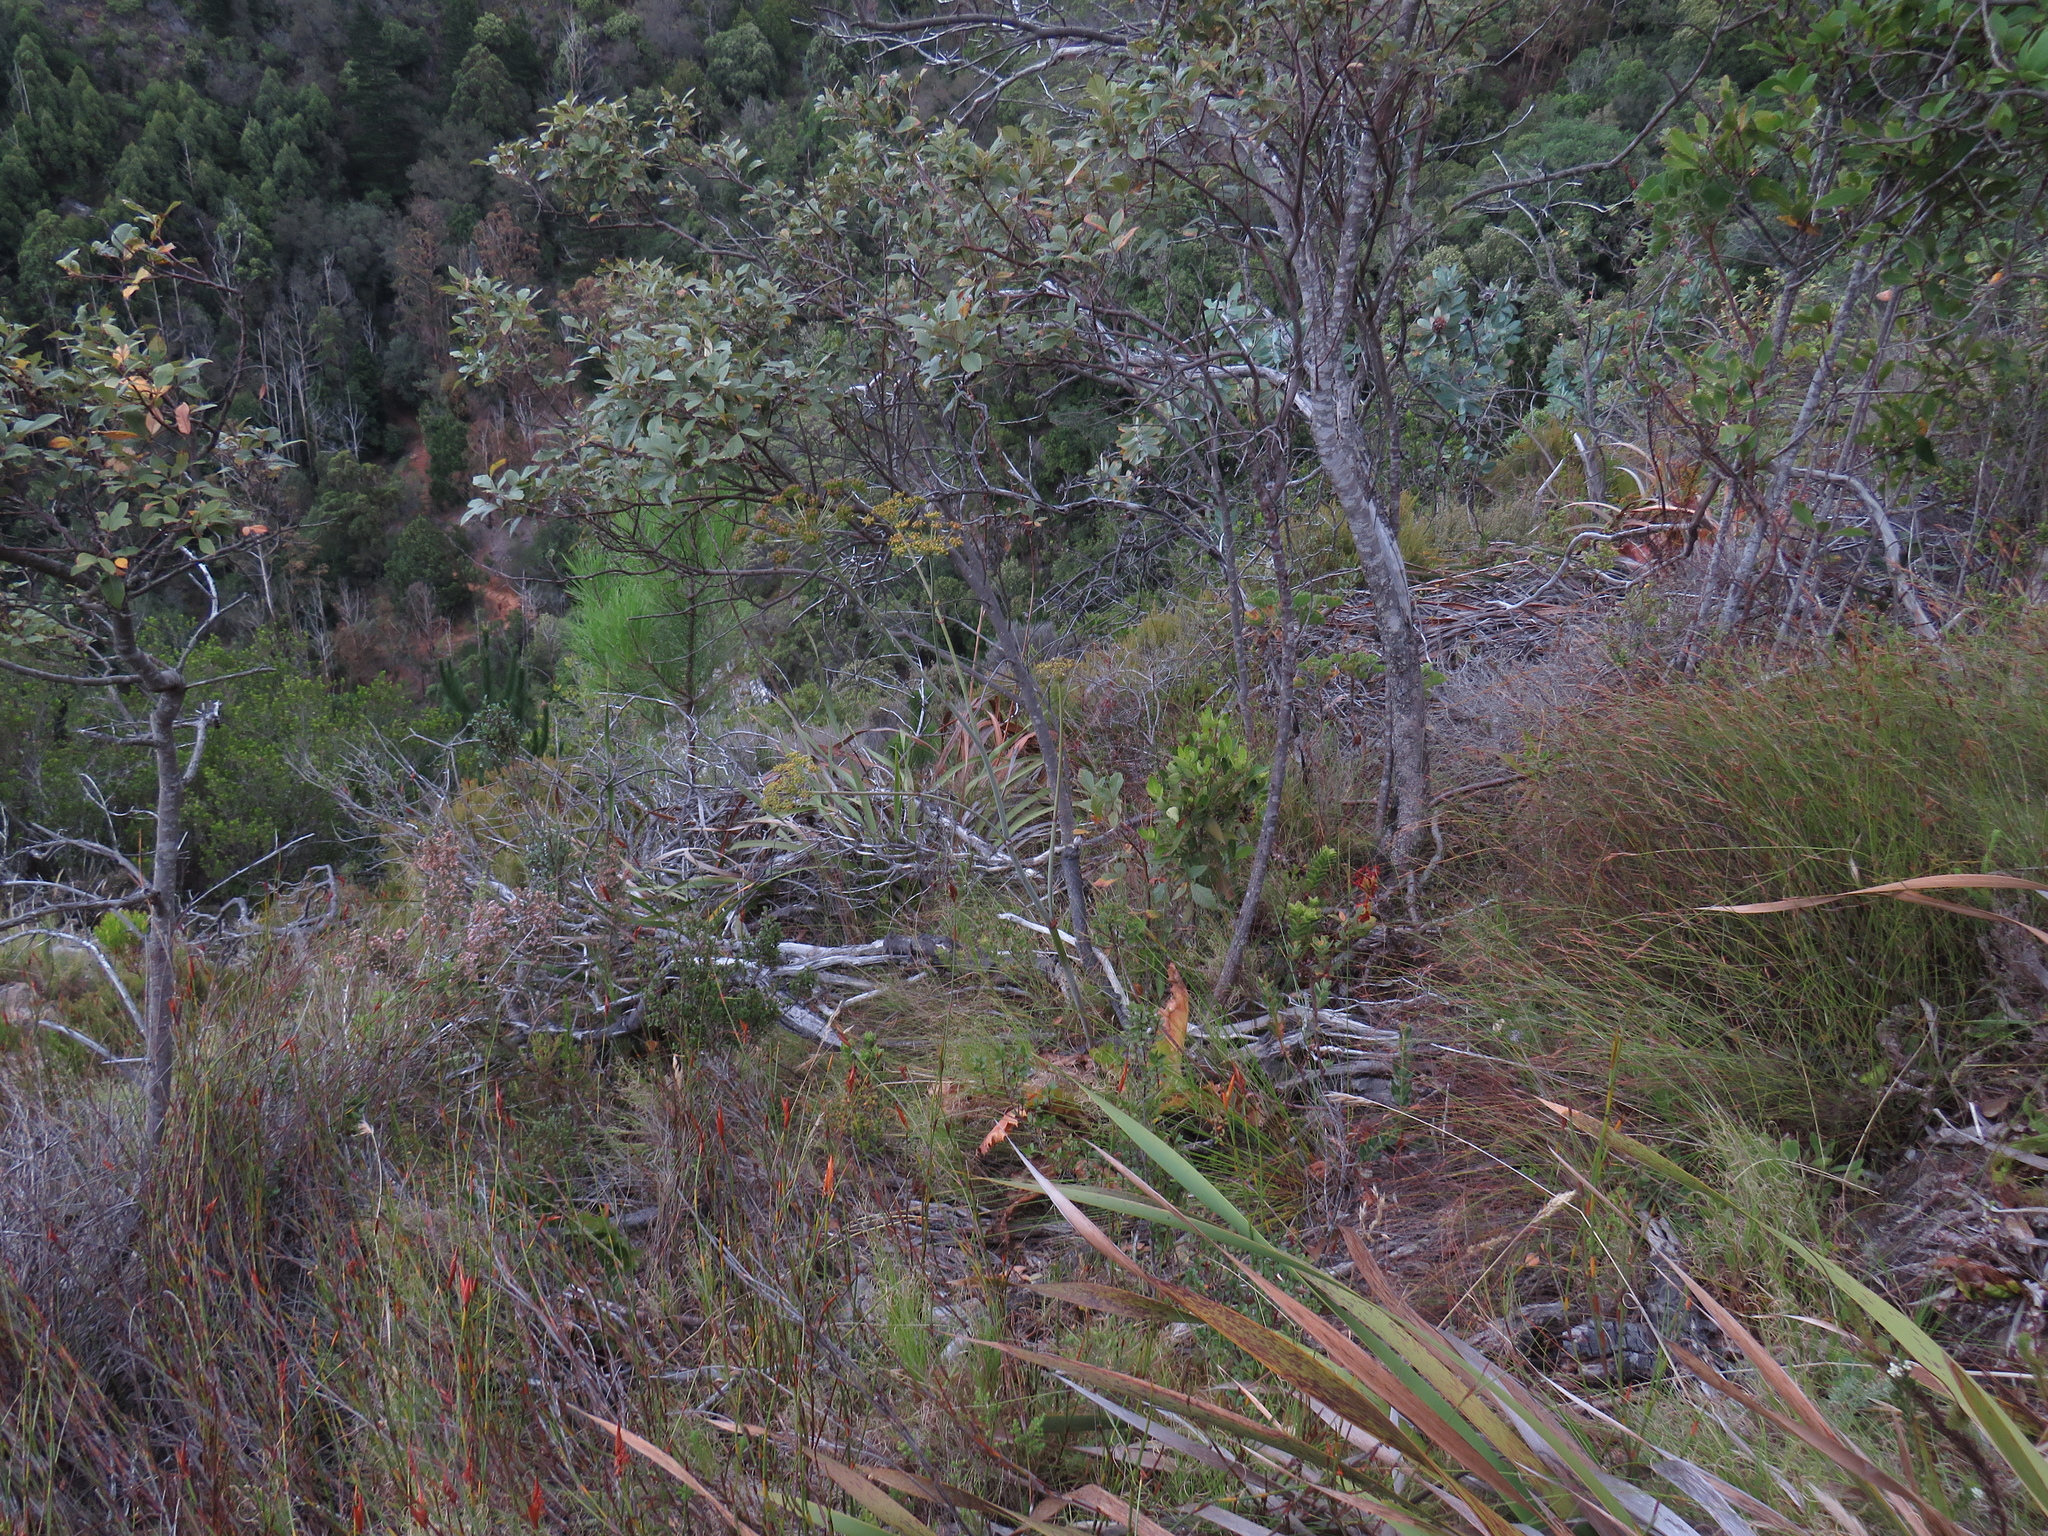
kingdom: Plantae
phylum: Tracheophyta
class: Magnoliopsida
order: Apiales
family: Apiaceae
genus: Lichtensteinia
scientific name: Lichtensteinia lacera
